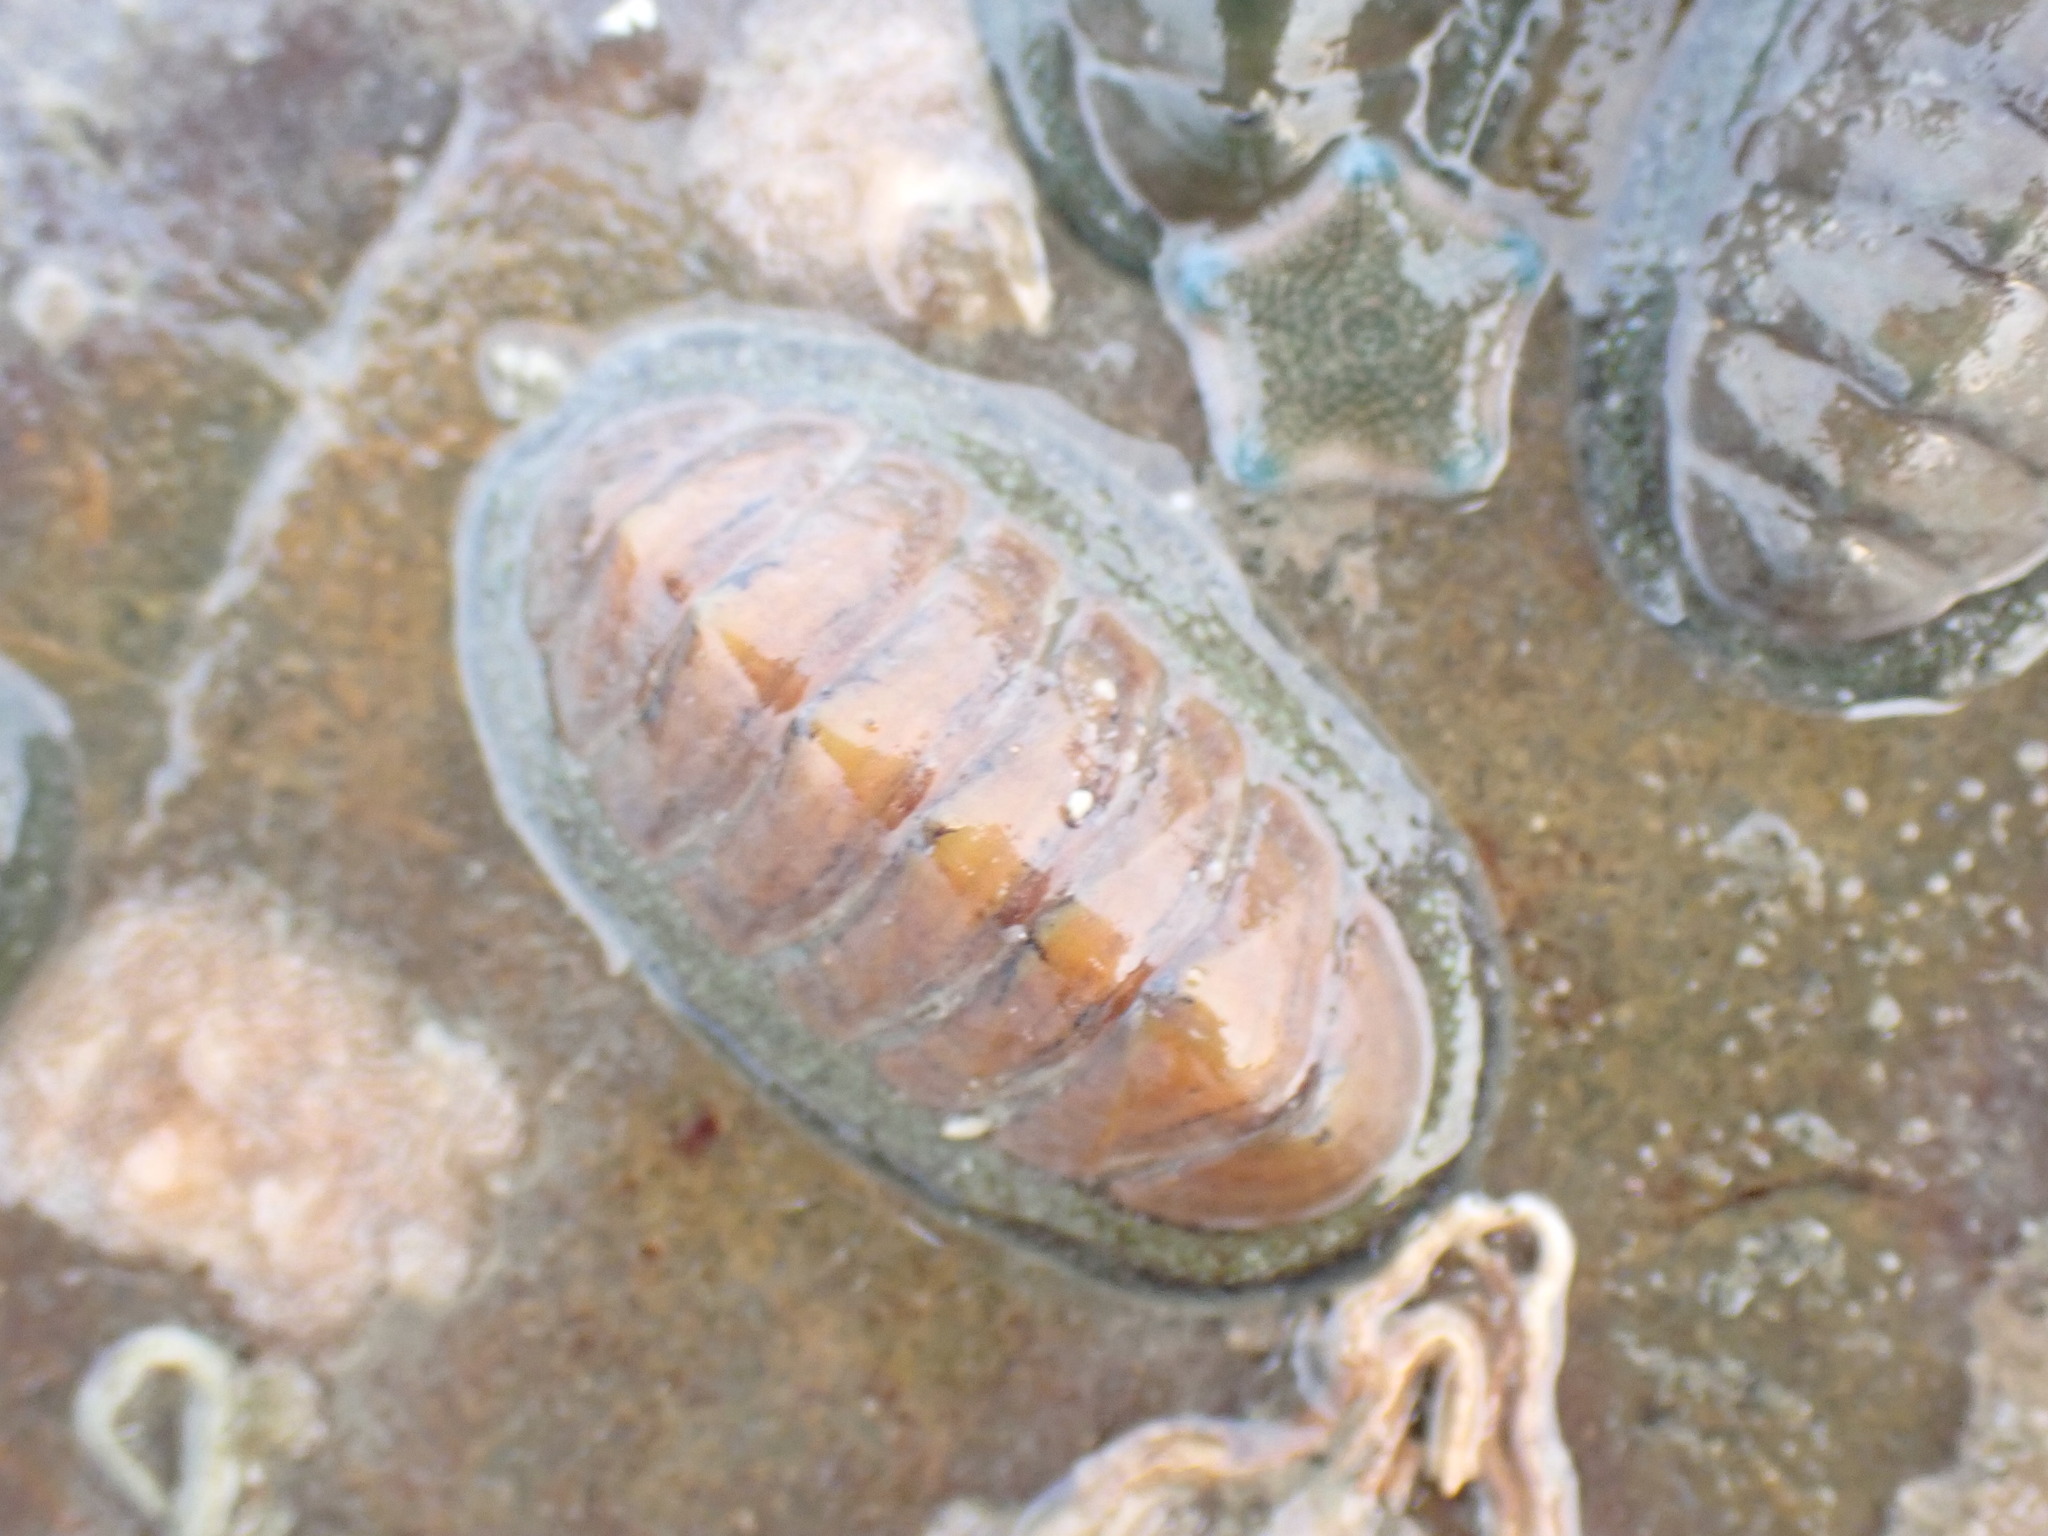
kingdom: Animalia
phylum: Mollusca
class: Polyplacophora
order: Chitonida
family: Chitonidae
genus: Chiton
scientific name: Chiton glaucus
